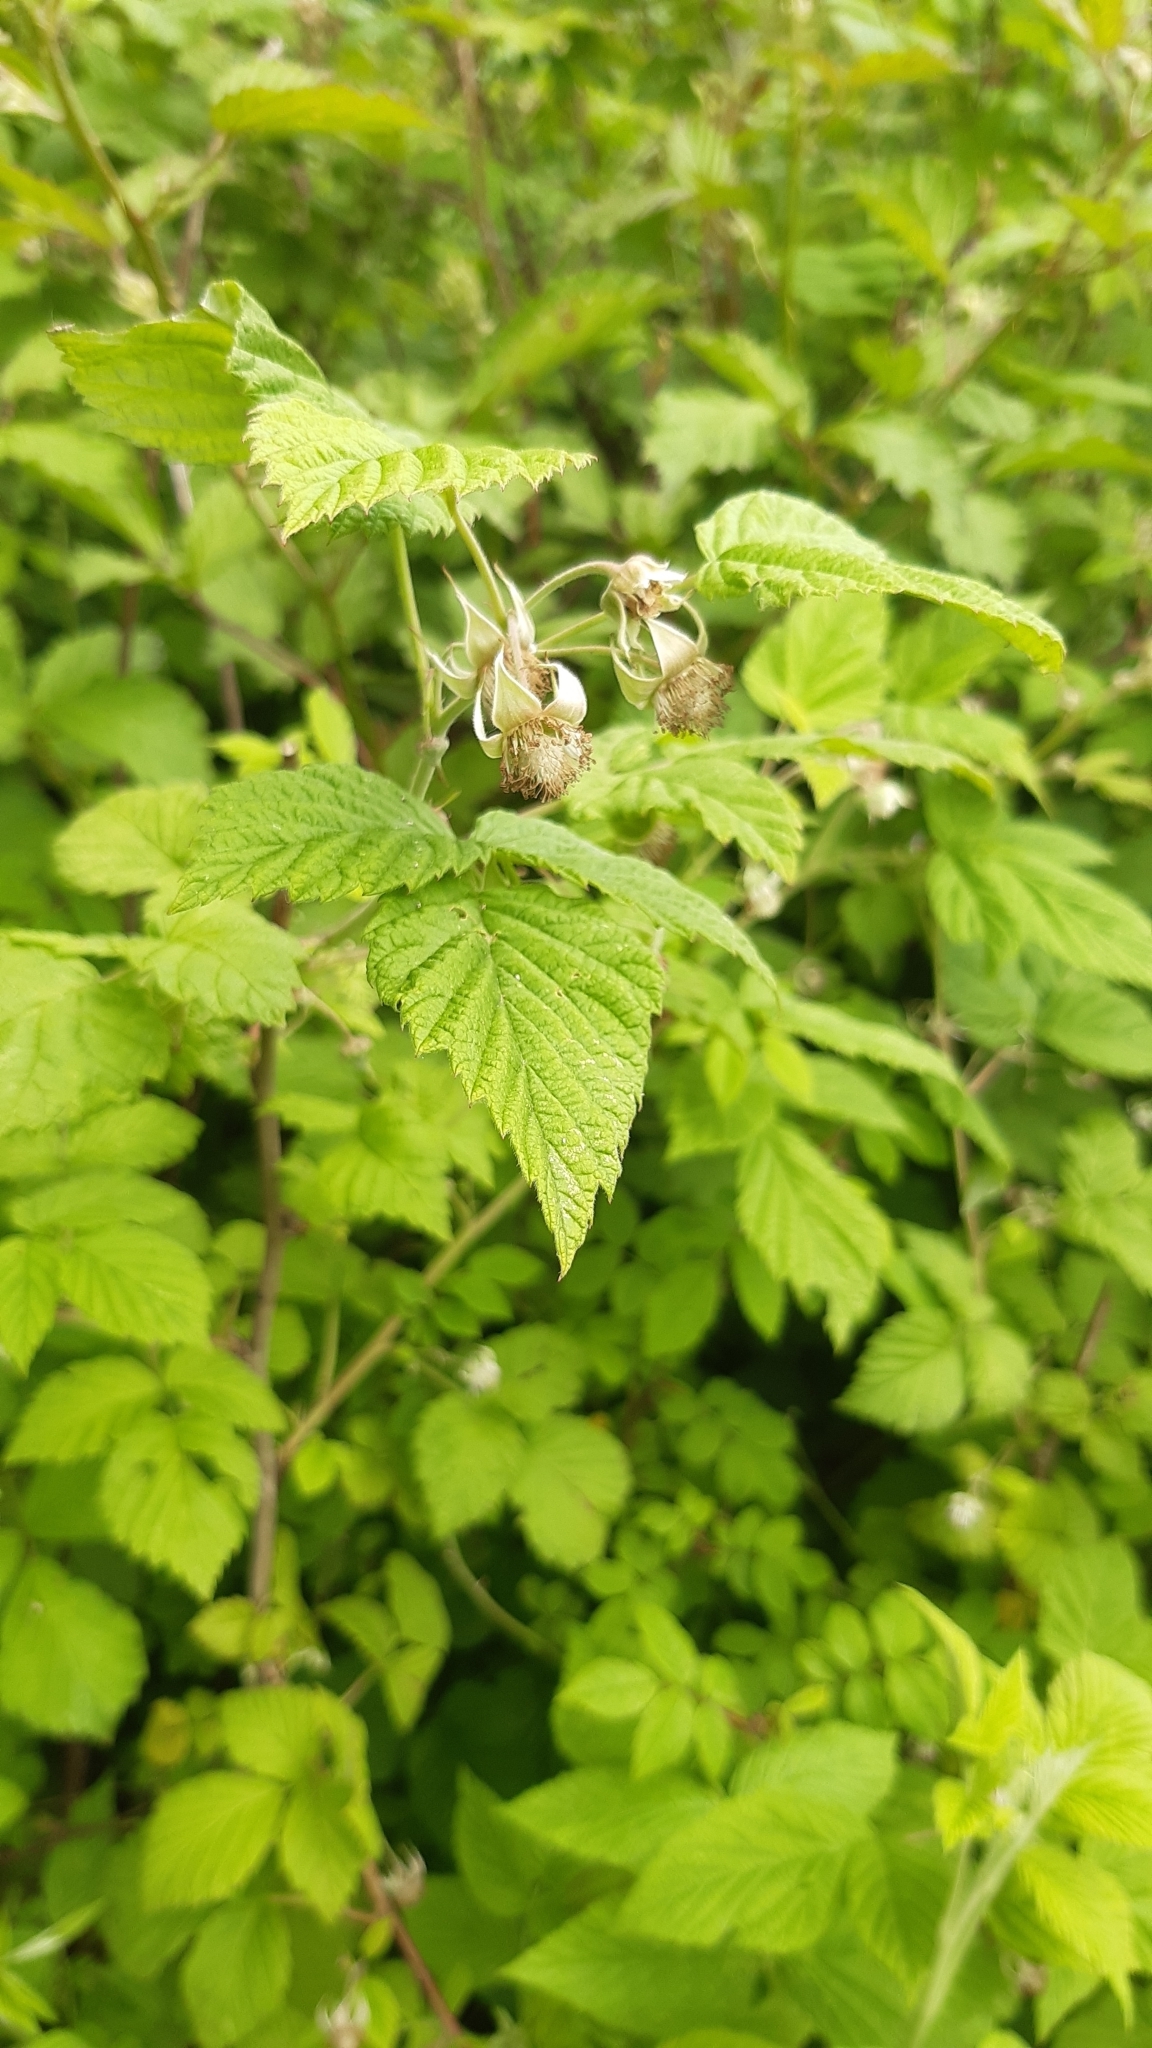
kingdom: Plantae
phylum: Tracheophyta
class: Magnoliopsida
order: Rosales
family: Rosaceae
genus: Rubus
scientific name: Rubus idaeus
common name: Raspberry
